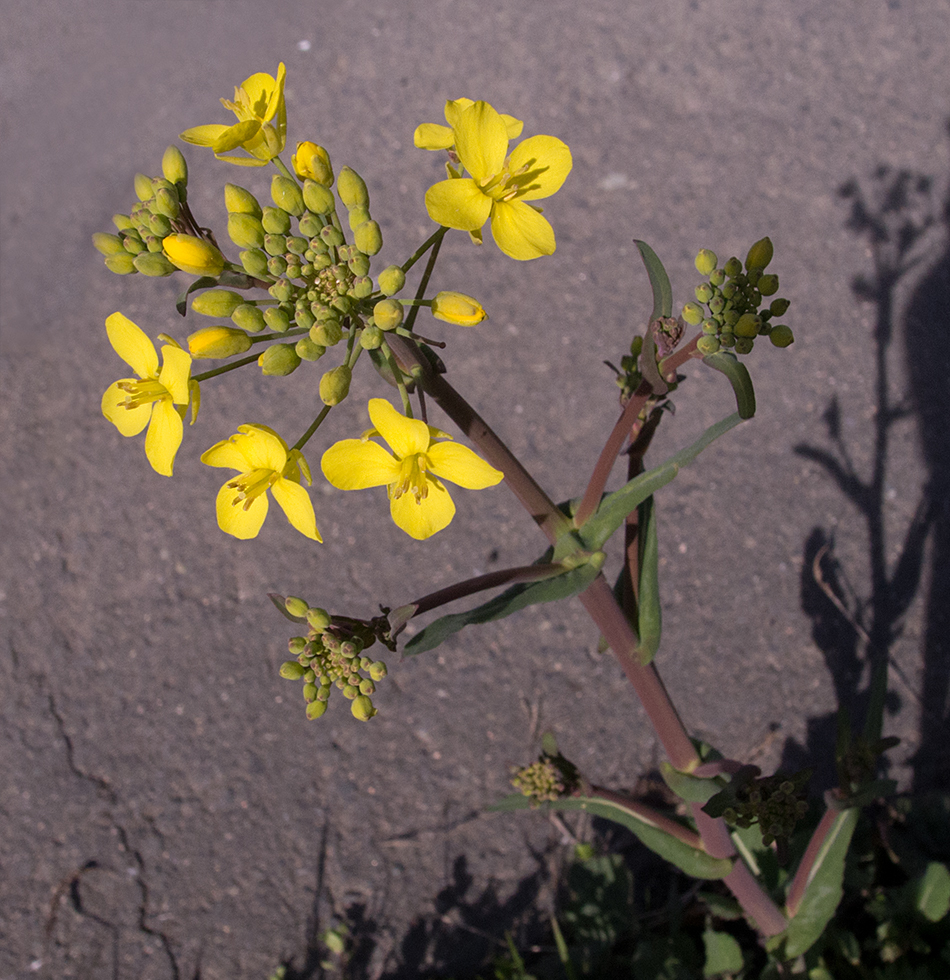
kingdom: Plantae
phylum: Tracheophyta
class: Magnoliopsida
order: Brassicales
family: Brassicaceae
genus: Brassica
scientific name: Brassica rapa
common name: Field mustard
